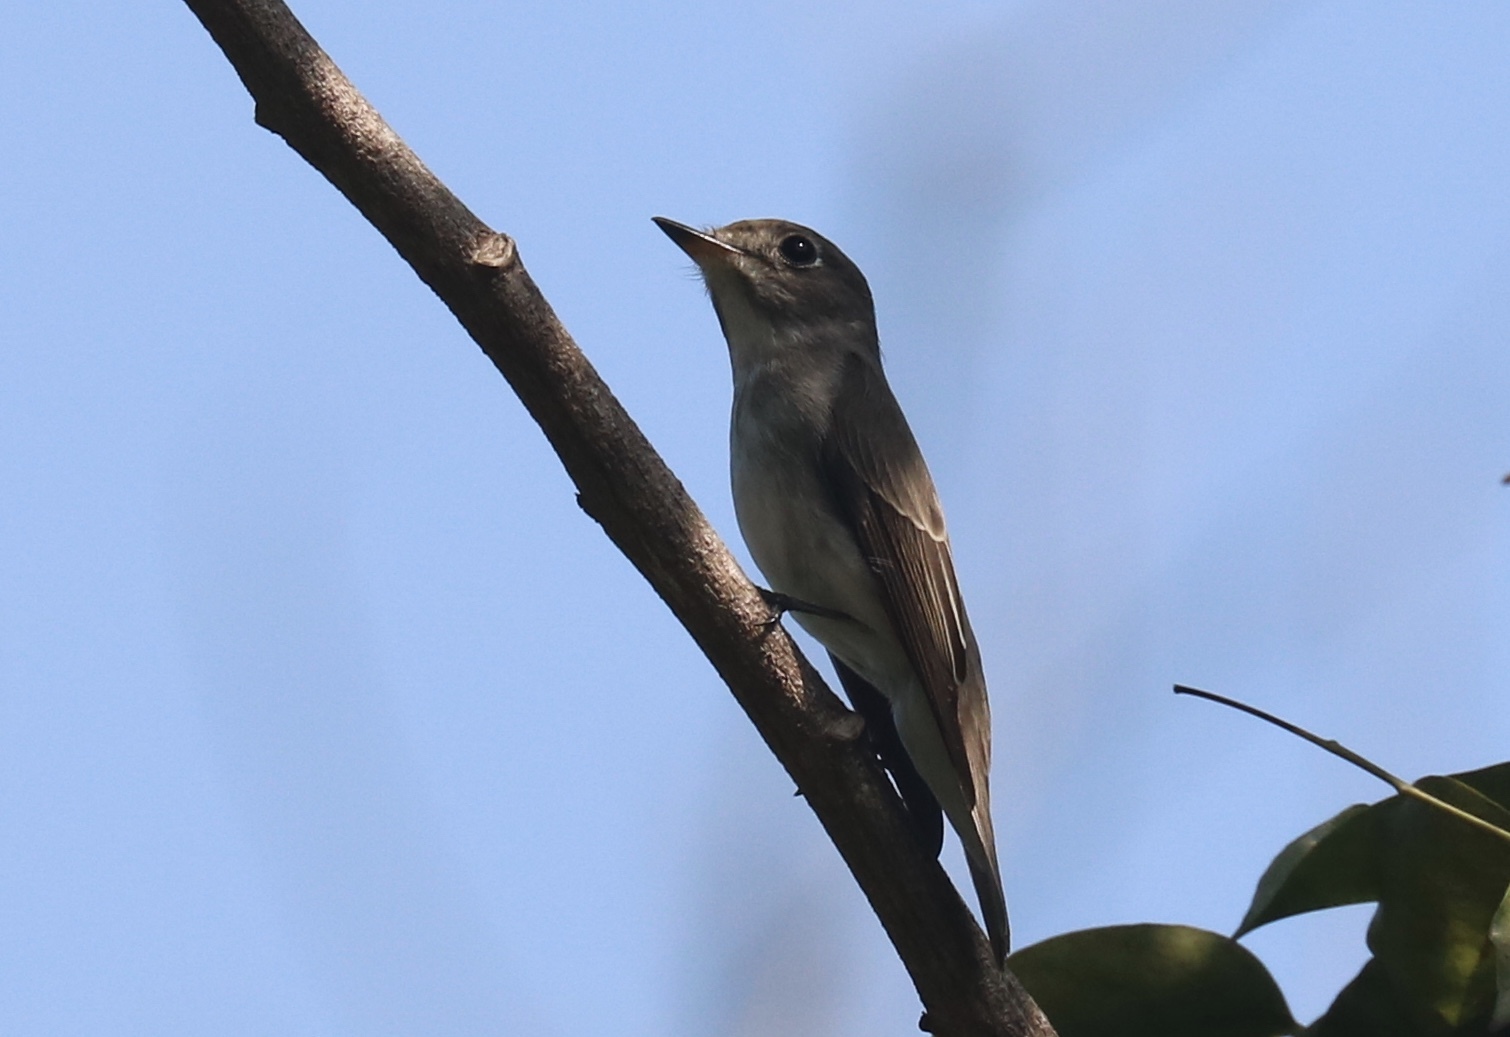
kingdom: Animalia
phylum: Chordata
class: Aves
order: Passeriformes
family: Muscicapidae
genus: Muscicapa
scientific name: Muscicapa latirostris
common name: Asian brown flycatcher
